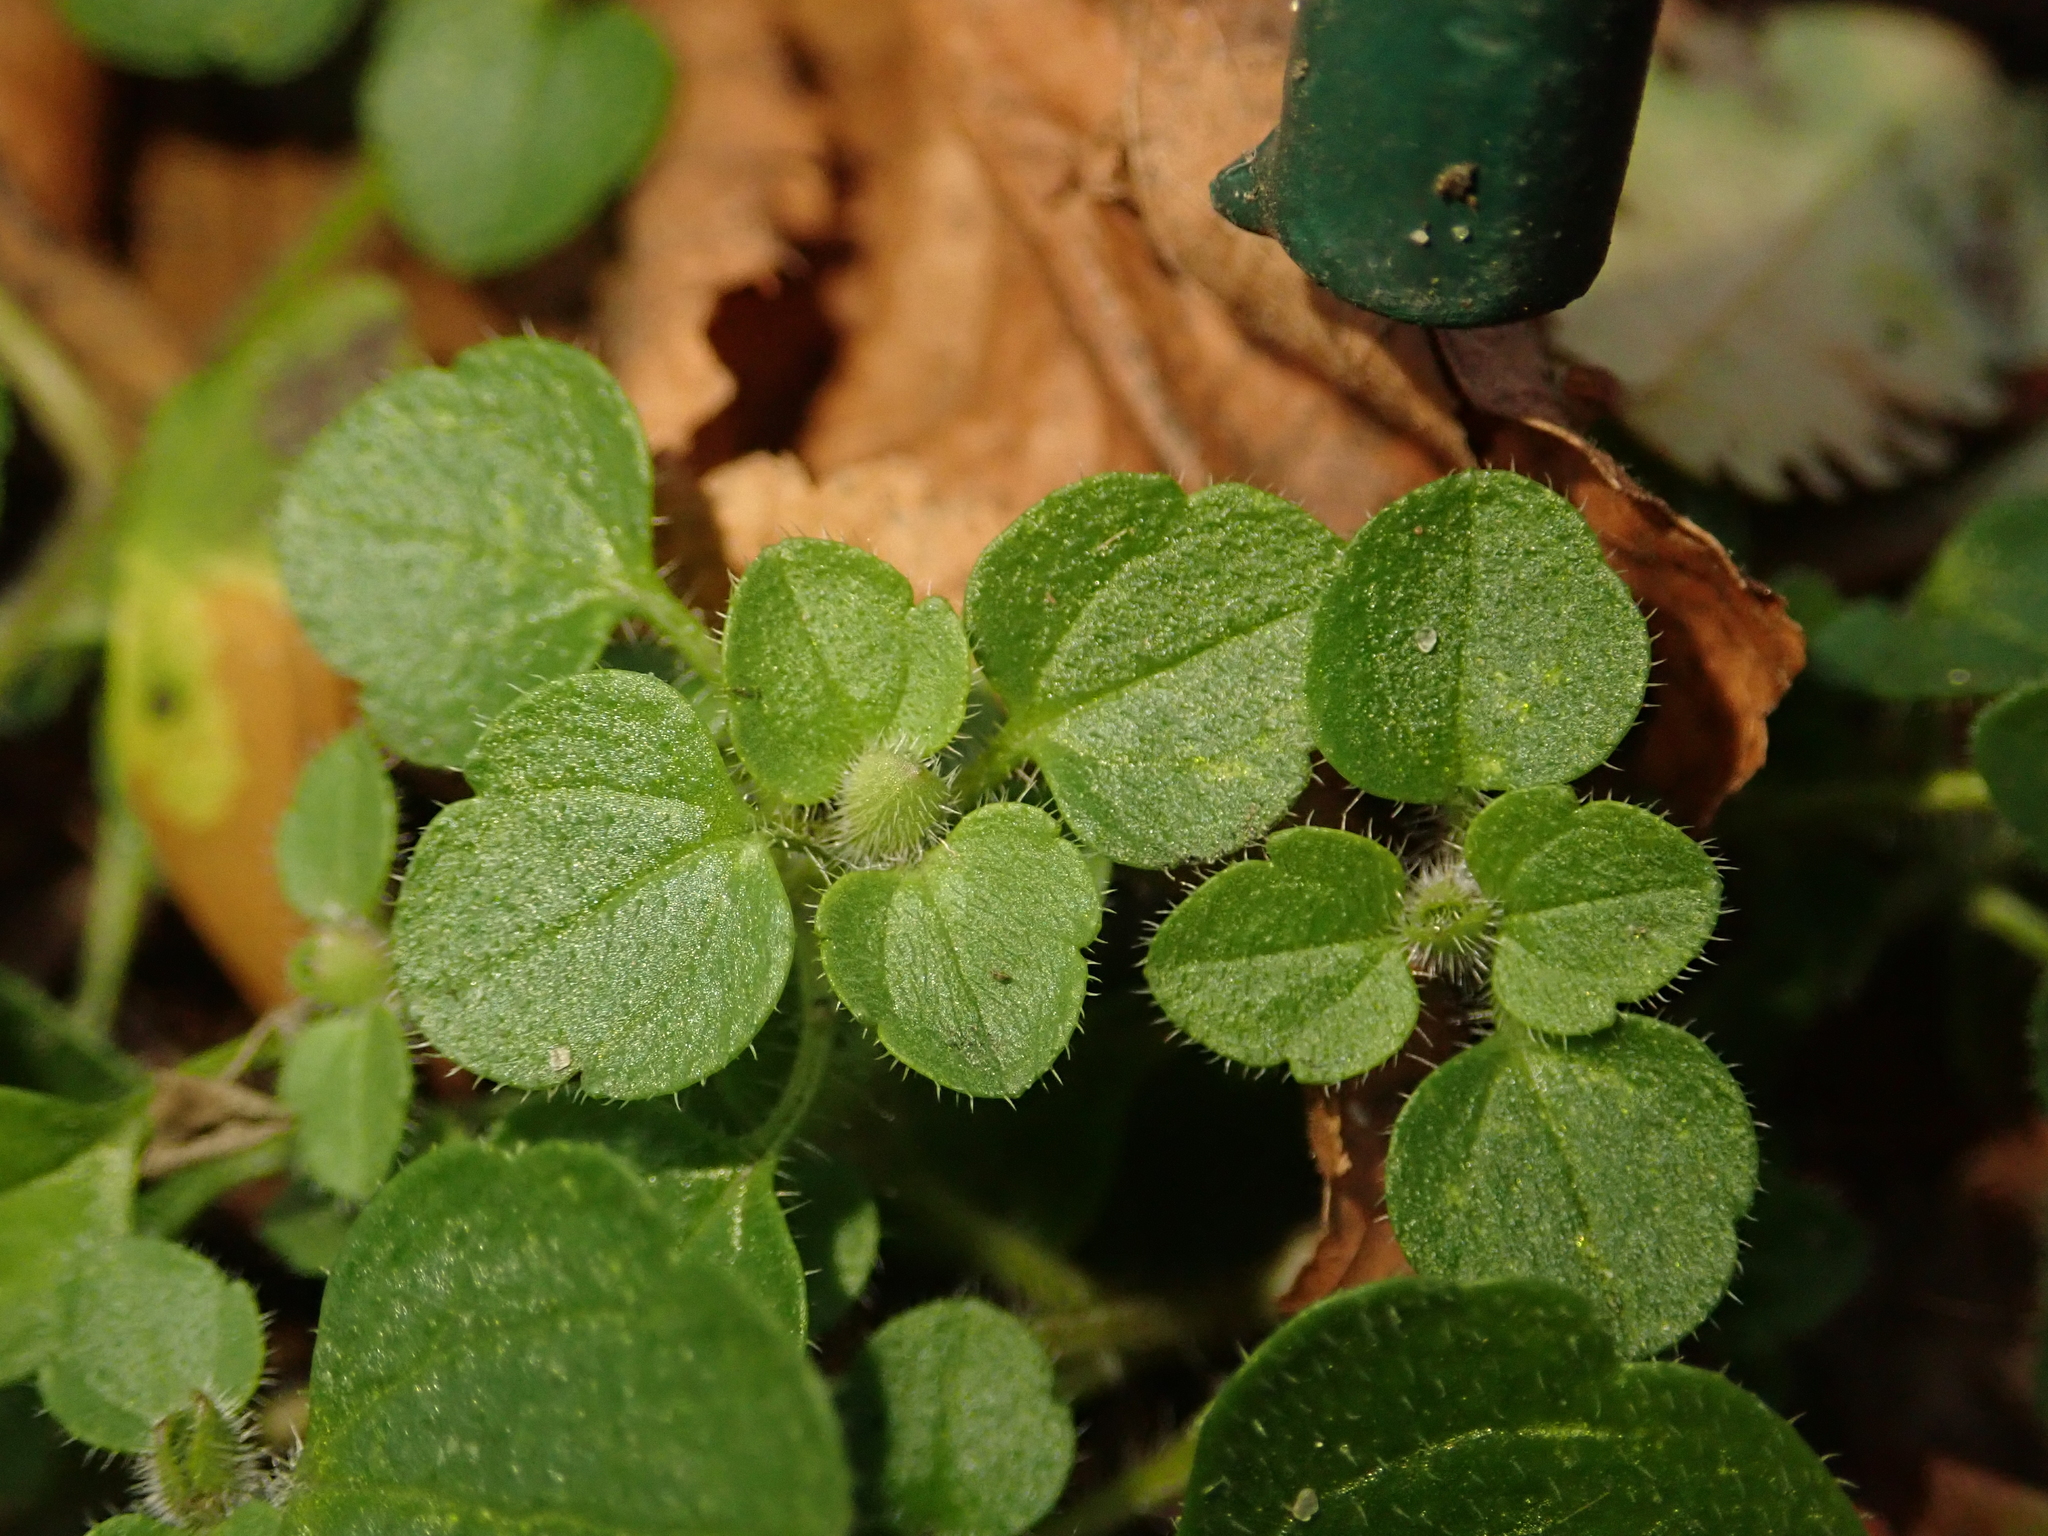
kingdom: Plantae
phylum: Tracheophyta
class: Magnoliopsida
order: Lamiales
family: Plantaginaceae
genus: Veronica
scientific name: Veronica
